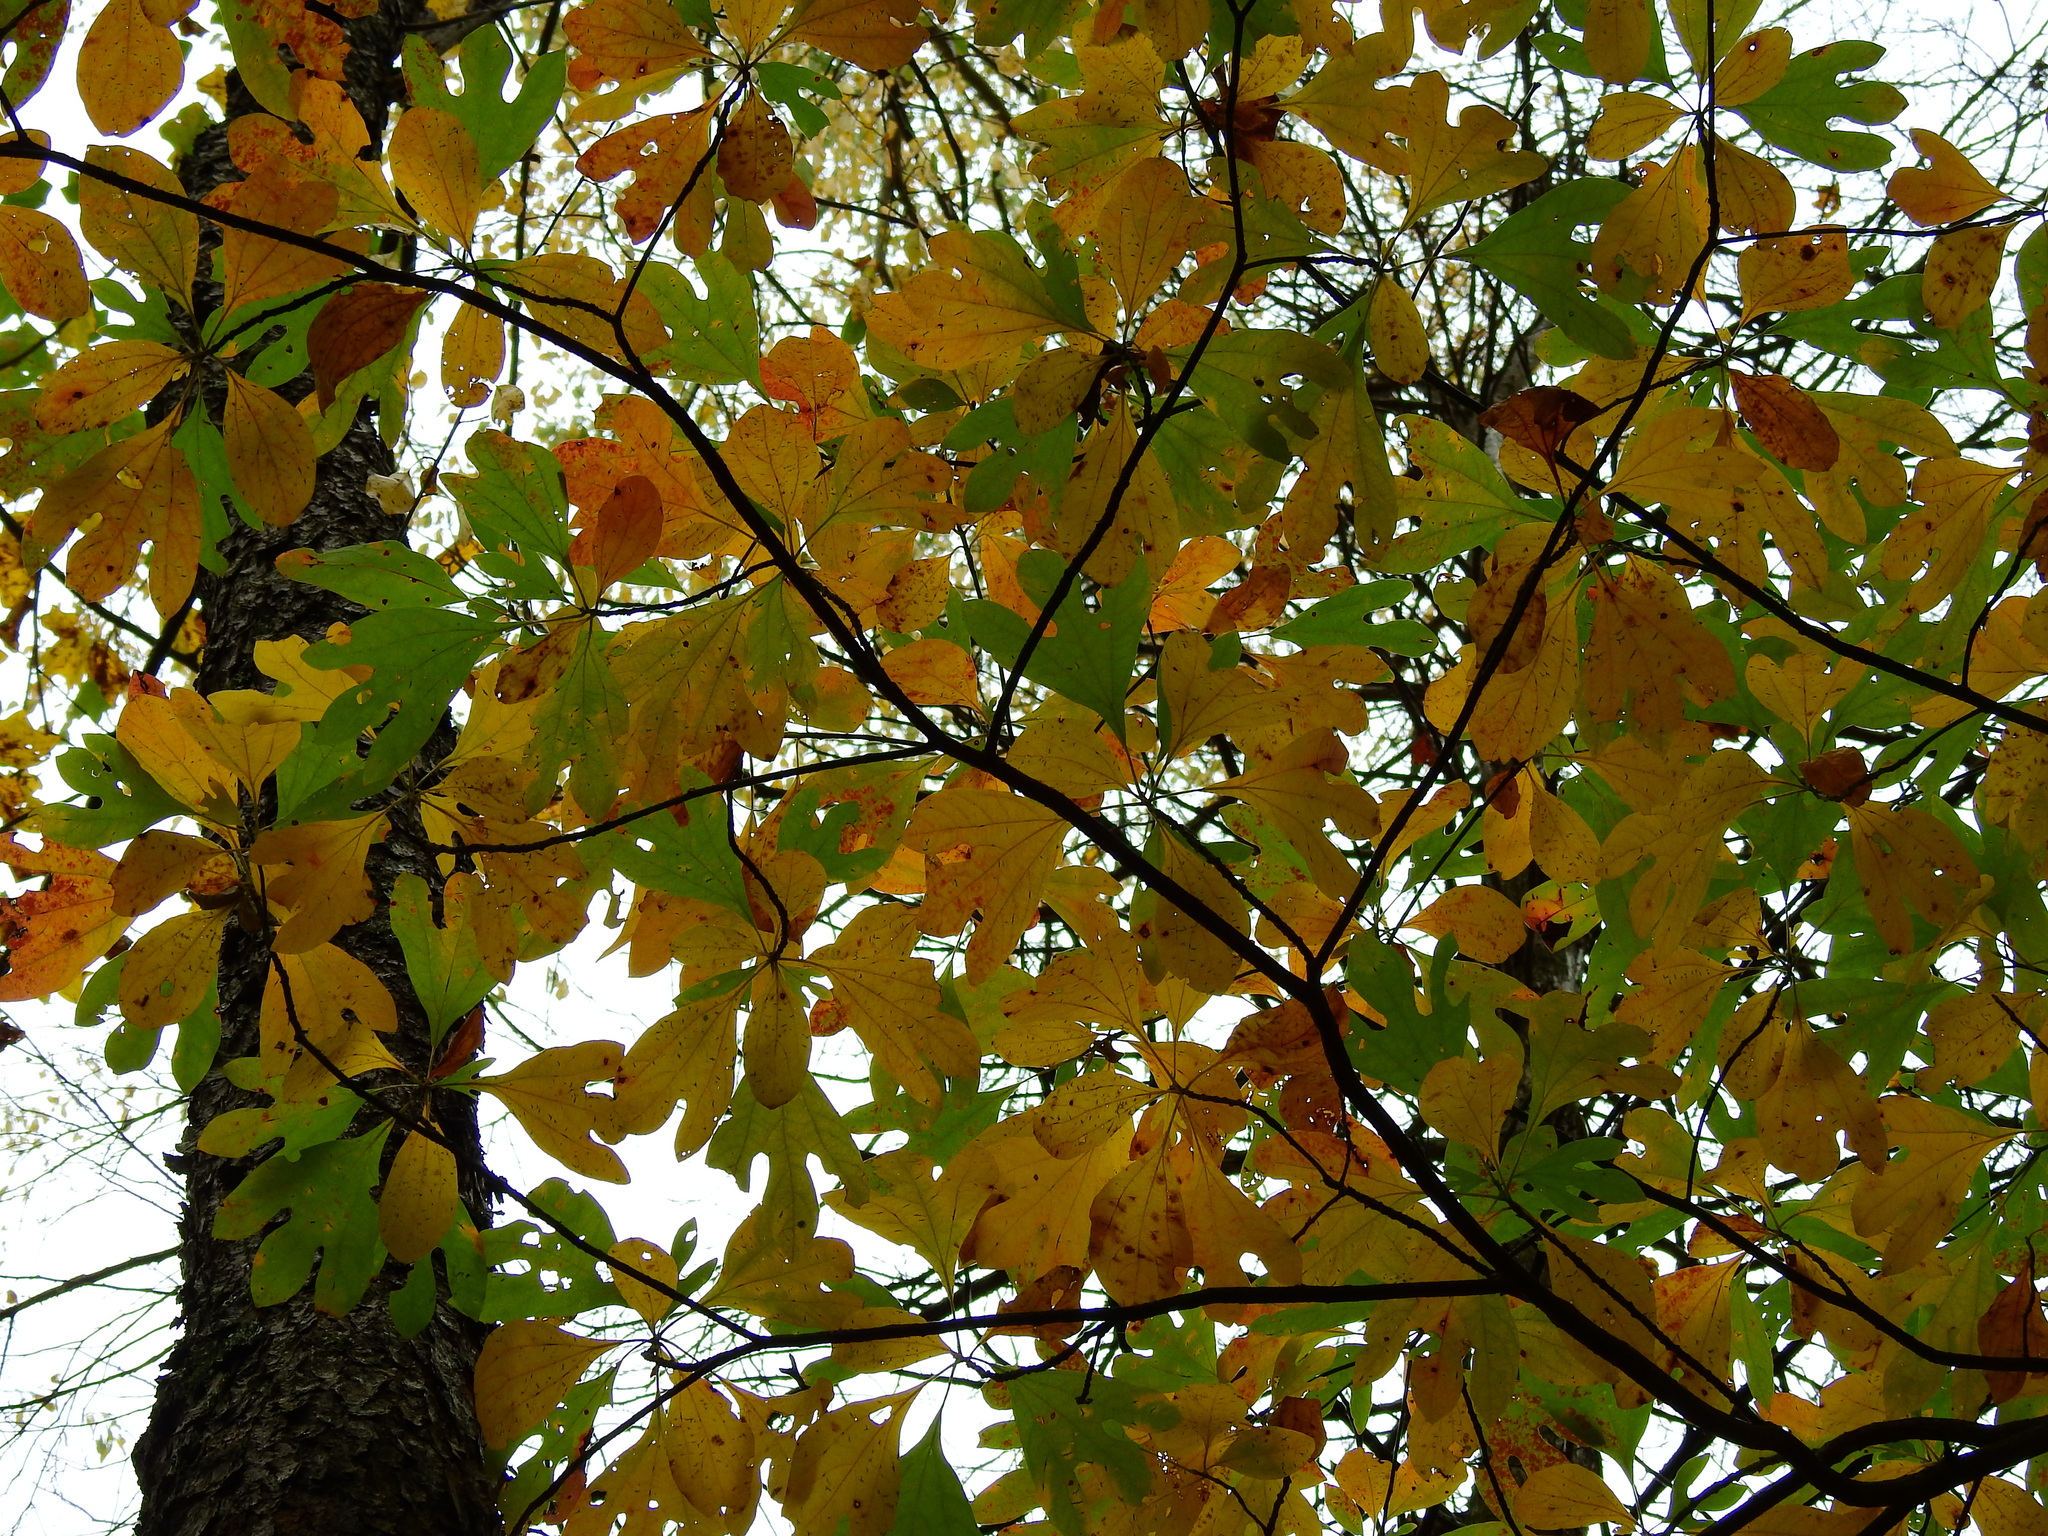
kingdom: Plantae
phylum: Tracheophyta
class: Magnoliopsida
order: Laurales
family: Lauraceae
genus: Sassafras
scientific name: Sassafras albidum
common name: Sassafras
